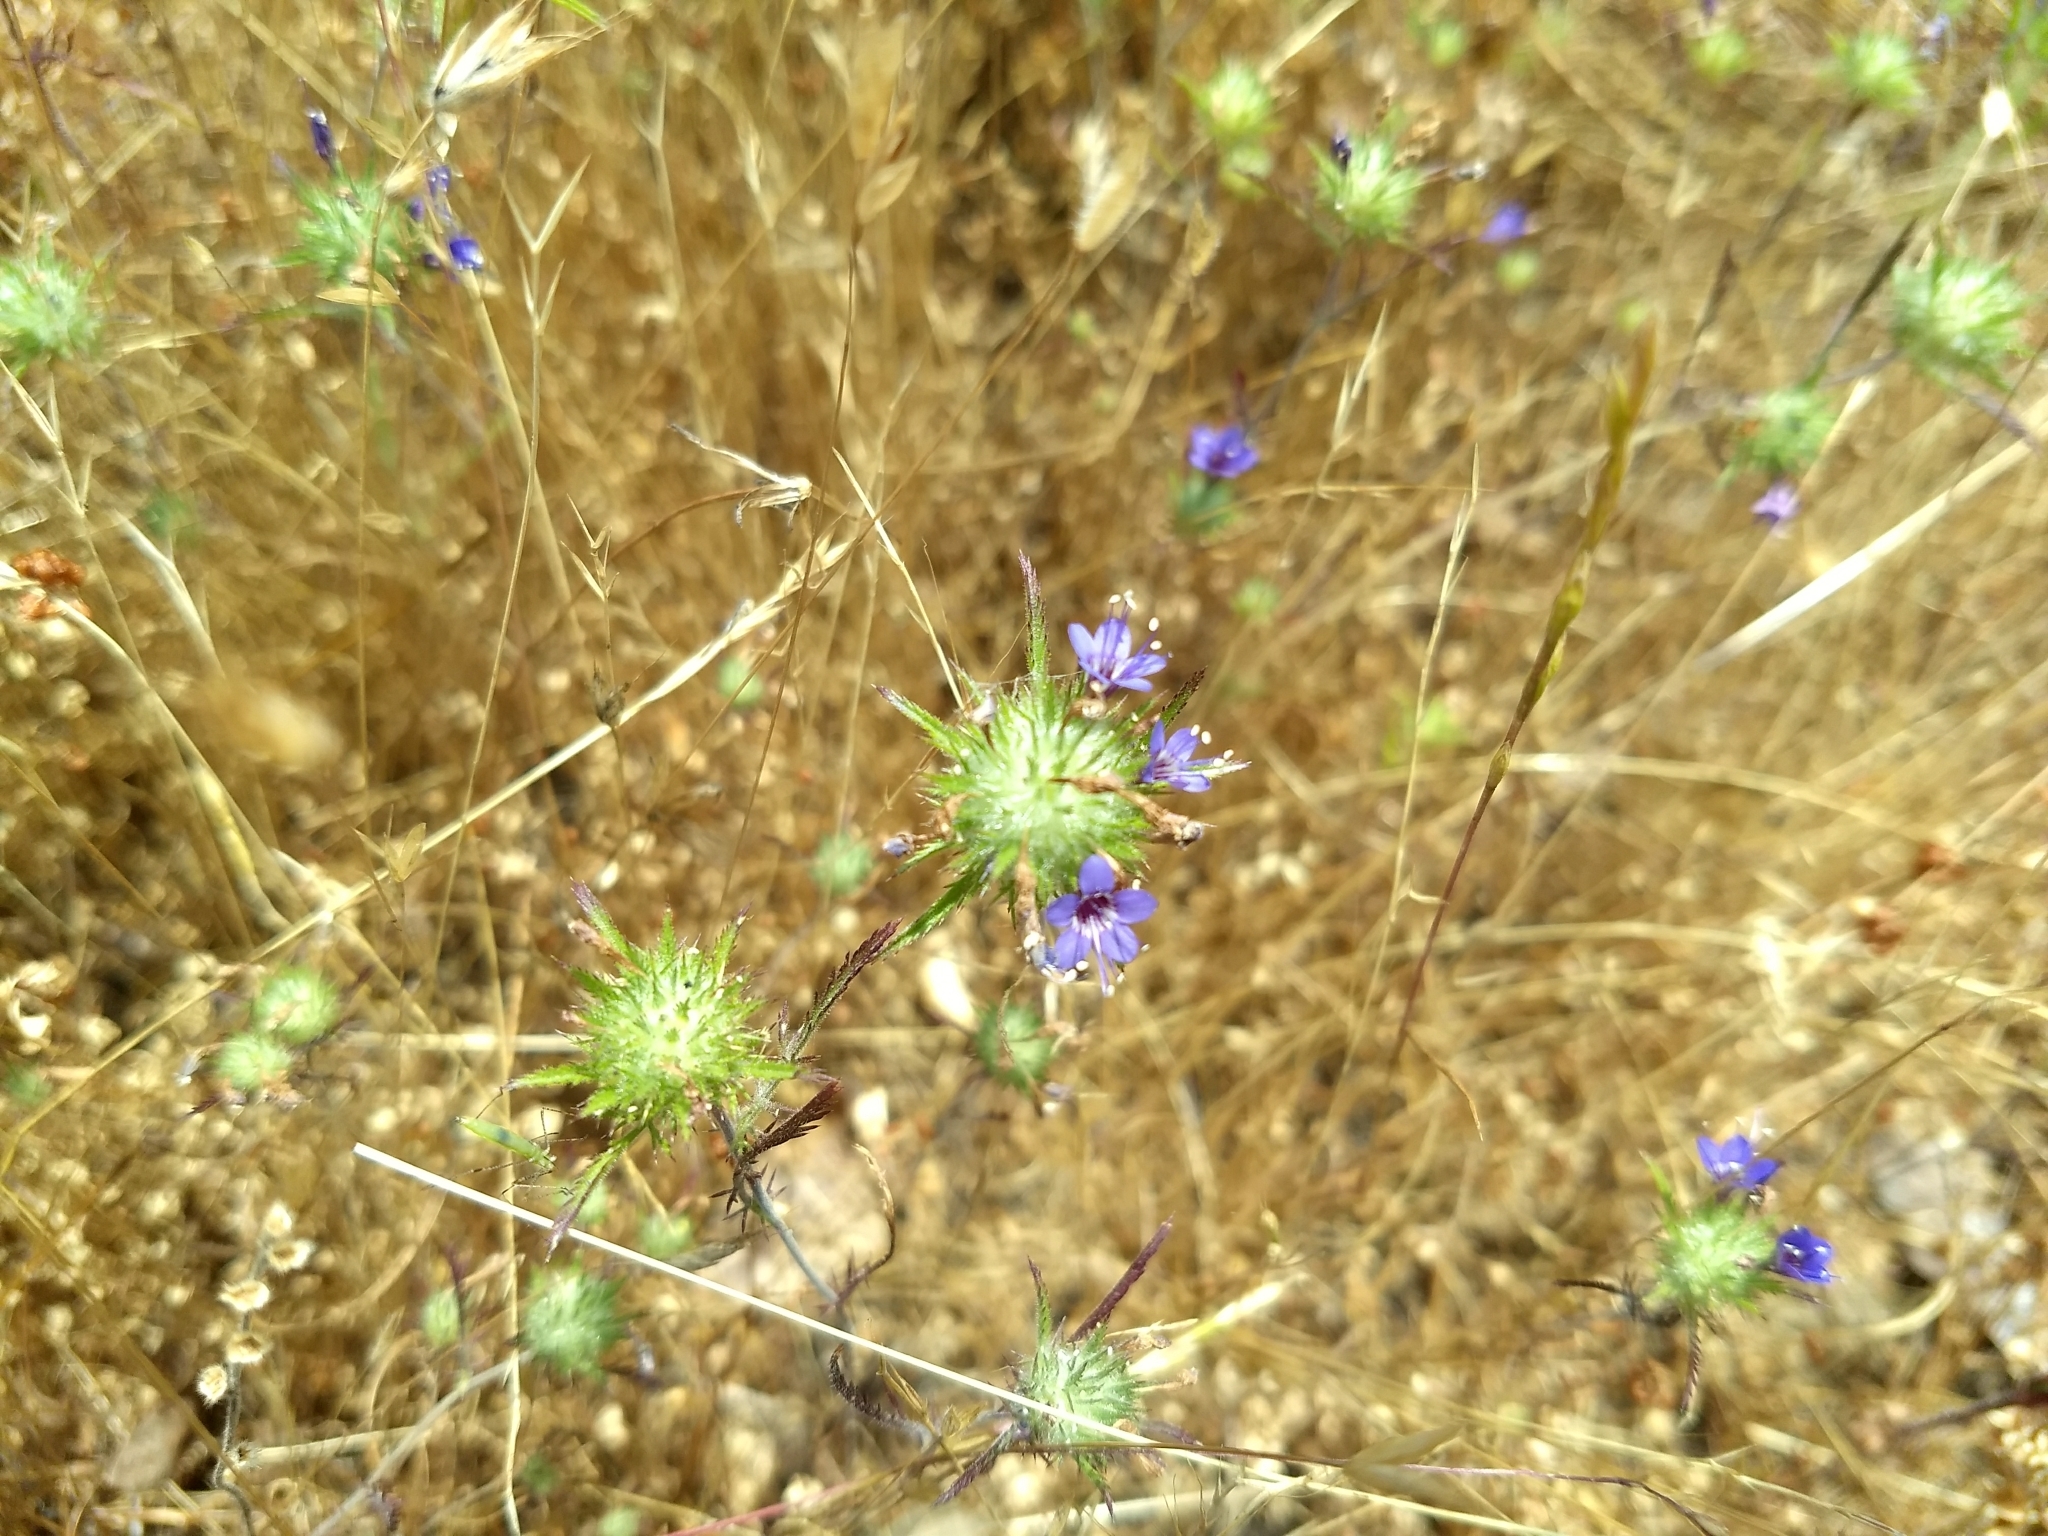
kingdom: Plantae
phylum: Tracheophyta
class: Magnoliopsida
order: Ericales
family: Polemoniaceae
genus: Navarretia
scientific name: Navarretia pubescens
